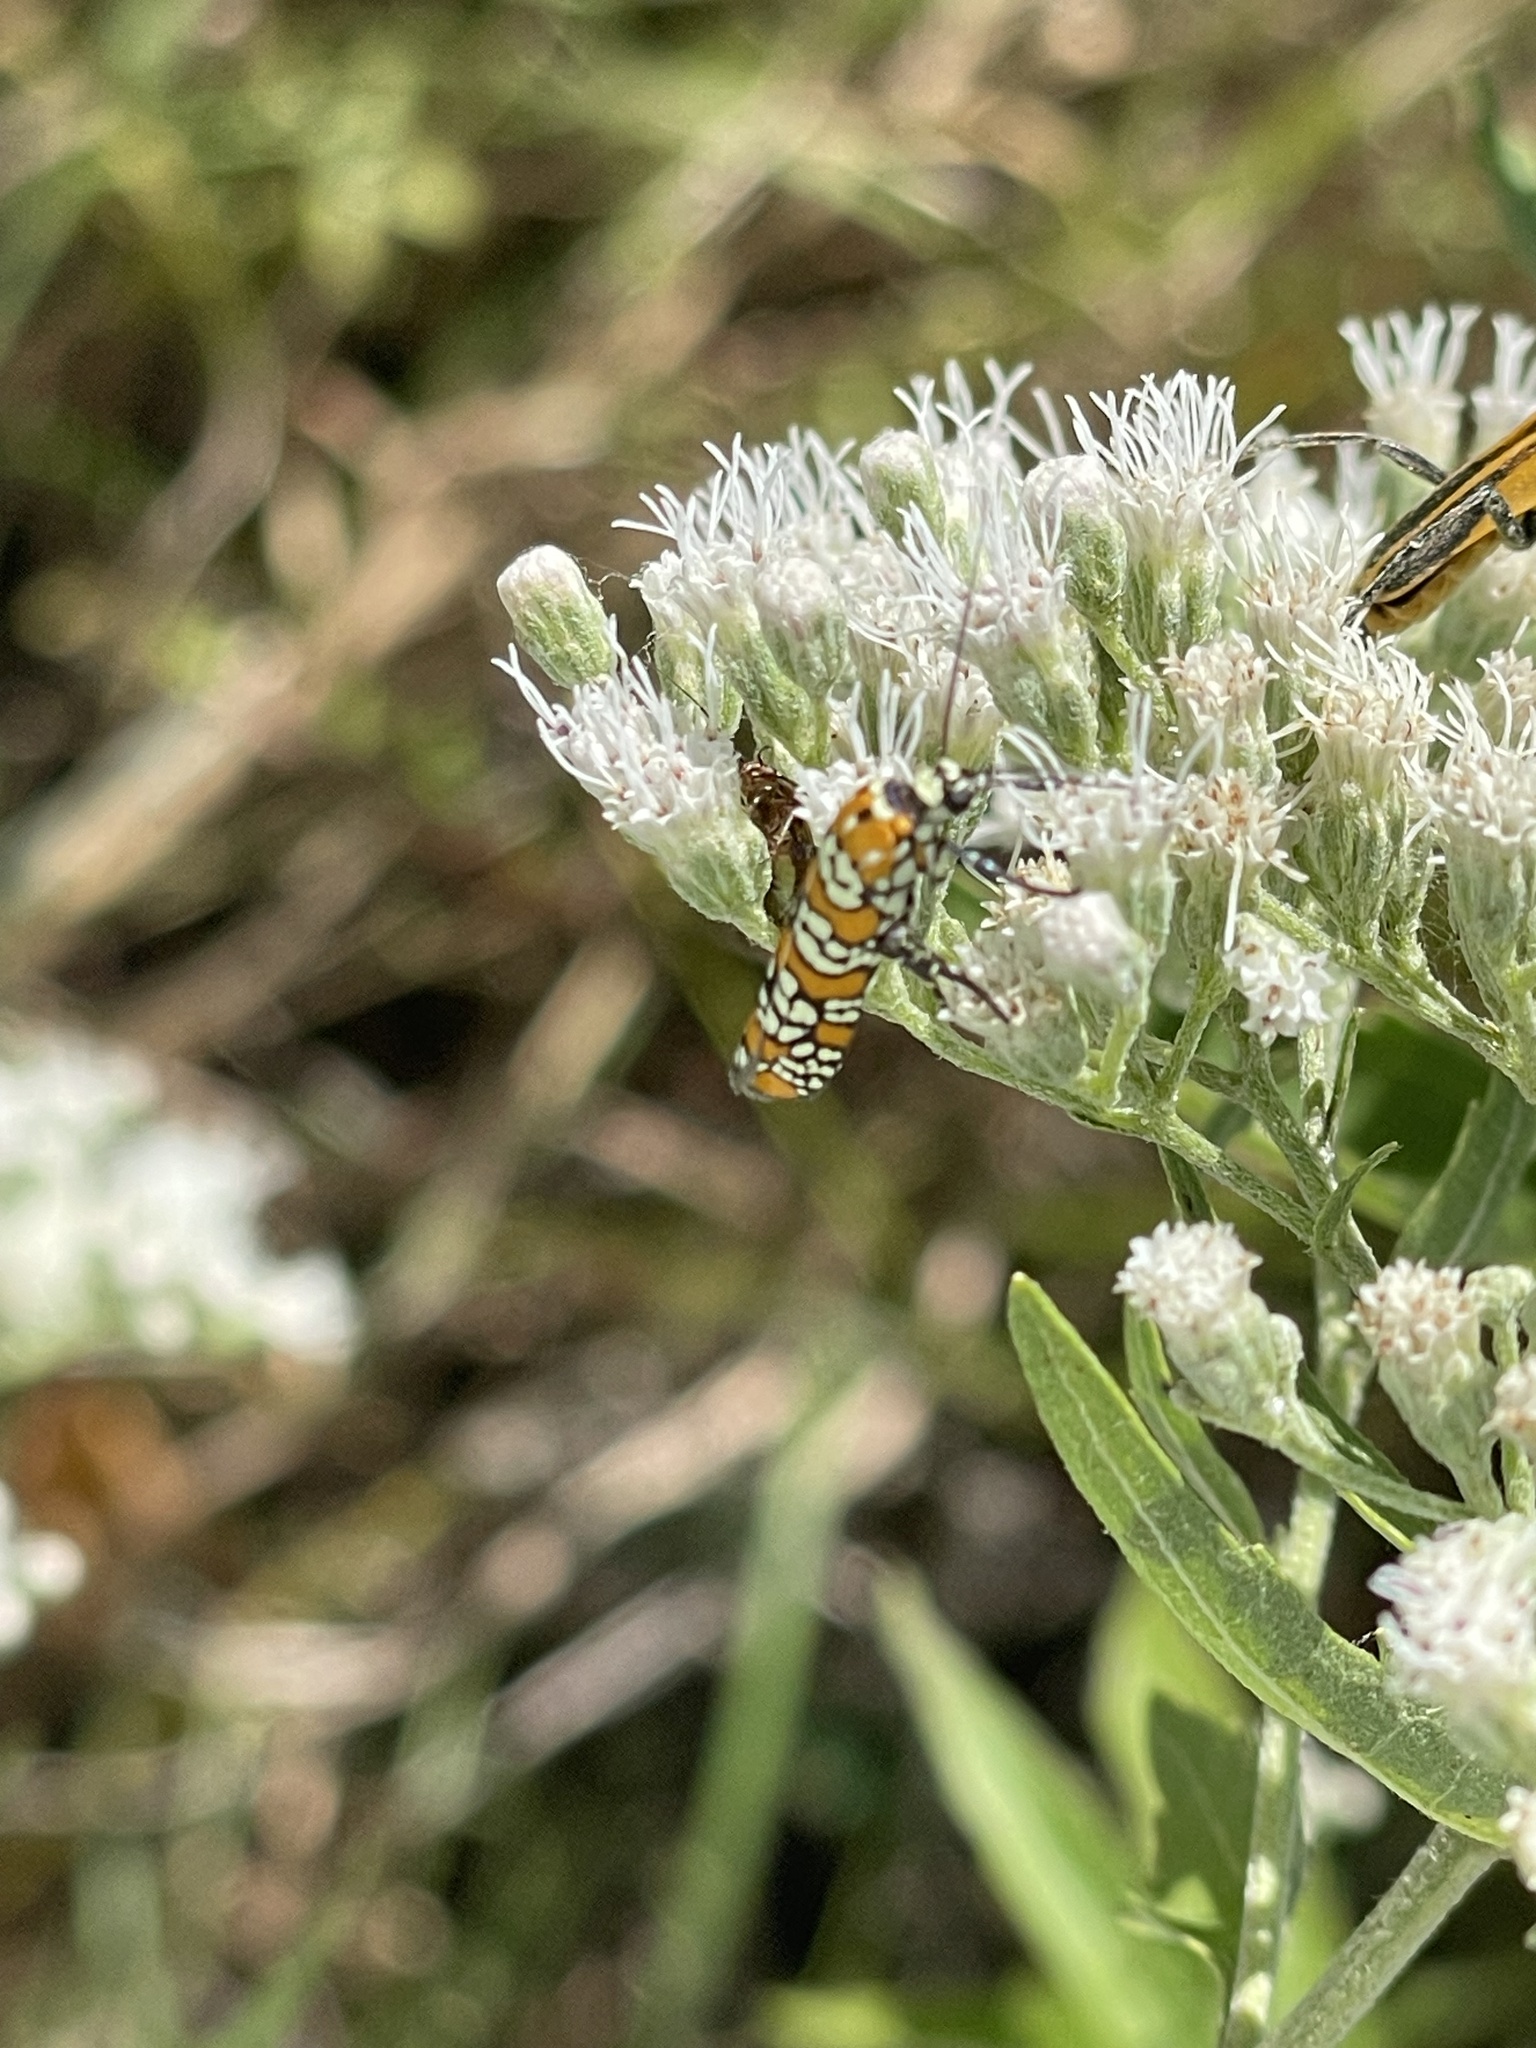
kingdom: Animalia
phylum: Arthropoda
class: Insecta
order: Lepidoptera
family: Attevidae
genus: Atteva
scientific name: Atteva punctella
